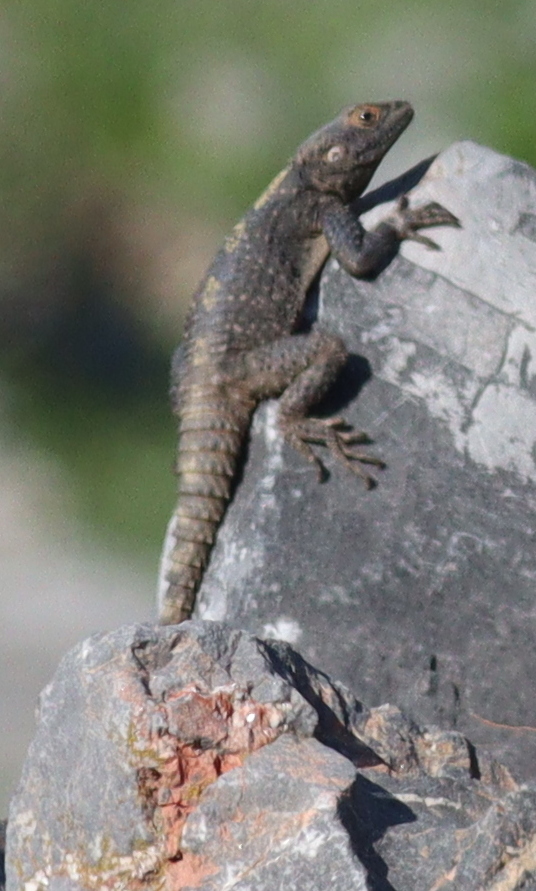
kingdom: Animalia
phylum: Chordata
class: Squamata
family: Agamidae
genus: Stellagama
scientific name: Stellagama stellio
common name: Starred agama
